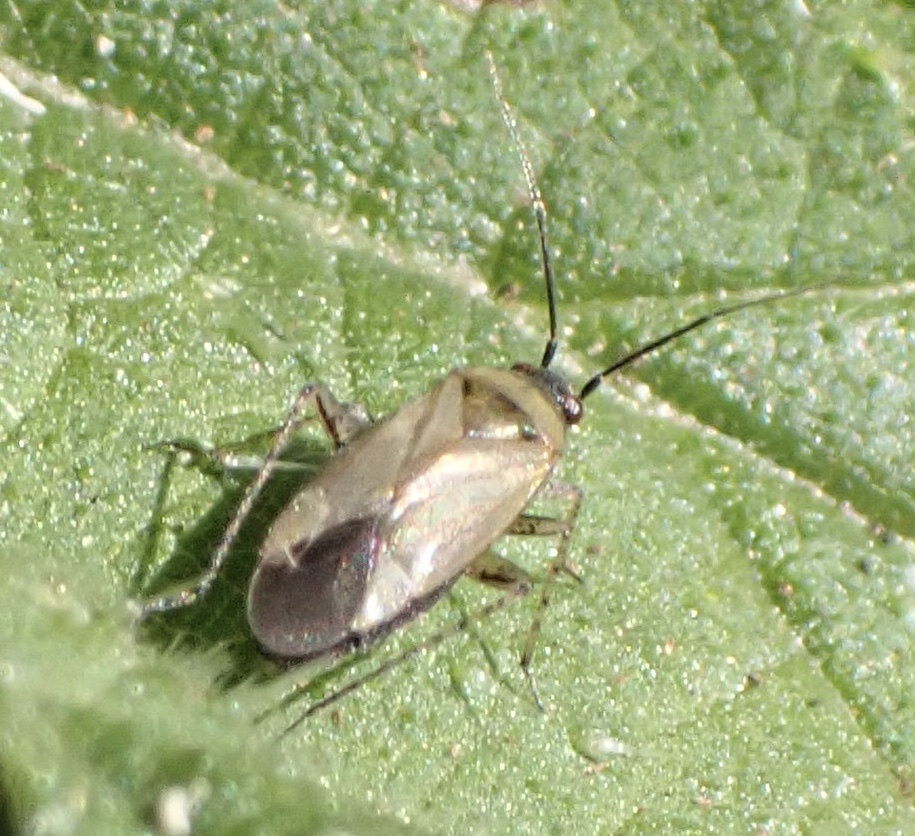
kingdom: Animalia
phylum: Arthropoda
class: Insecta
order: Hemiptera
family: Miridae
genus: Plagiognathus
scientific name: Plagiognathus arbustorum
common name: Plant bug
